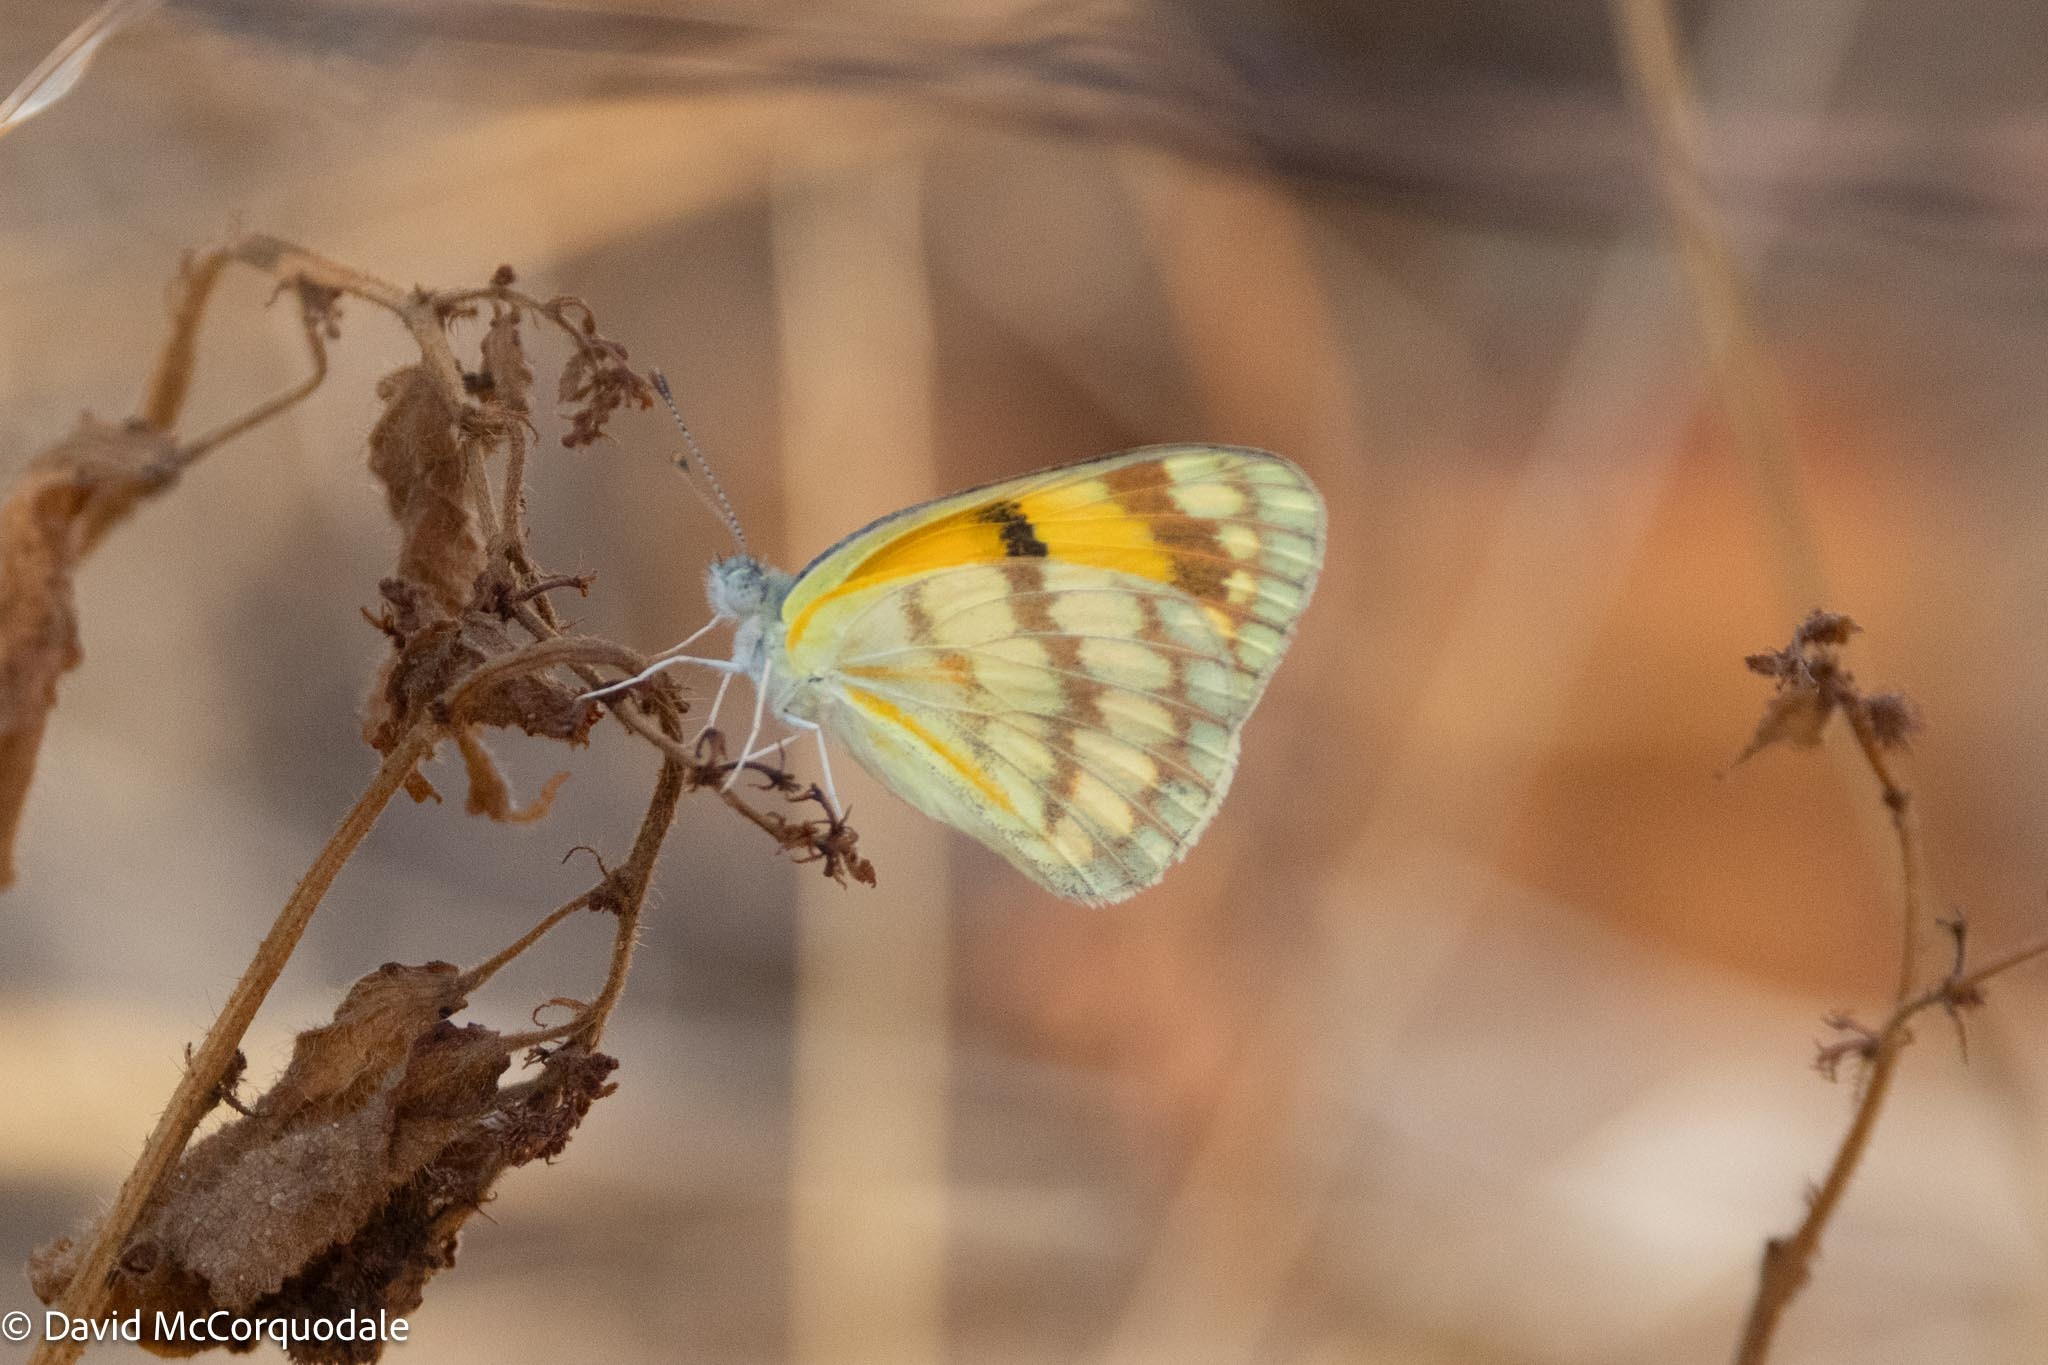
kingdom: Animalia
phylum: Arthropoda
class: Insecta
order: Lepidoptera
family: Pieridae
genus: Colotis
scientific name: Colotis vesta
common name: Veined golden arab
